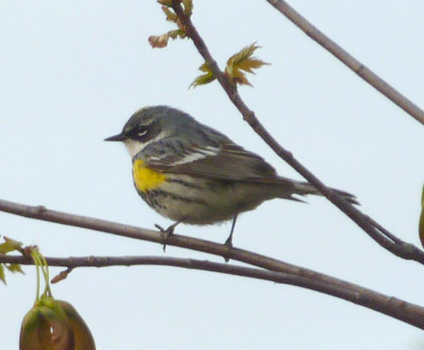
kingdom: Animalia
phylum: Chordata
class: Aves
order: Passeriformes
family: Parulidae
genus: Setophaga
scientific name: Setophaga coronata
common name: Myrtle warbler
